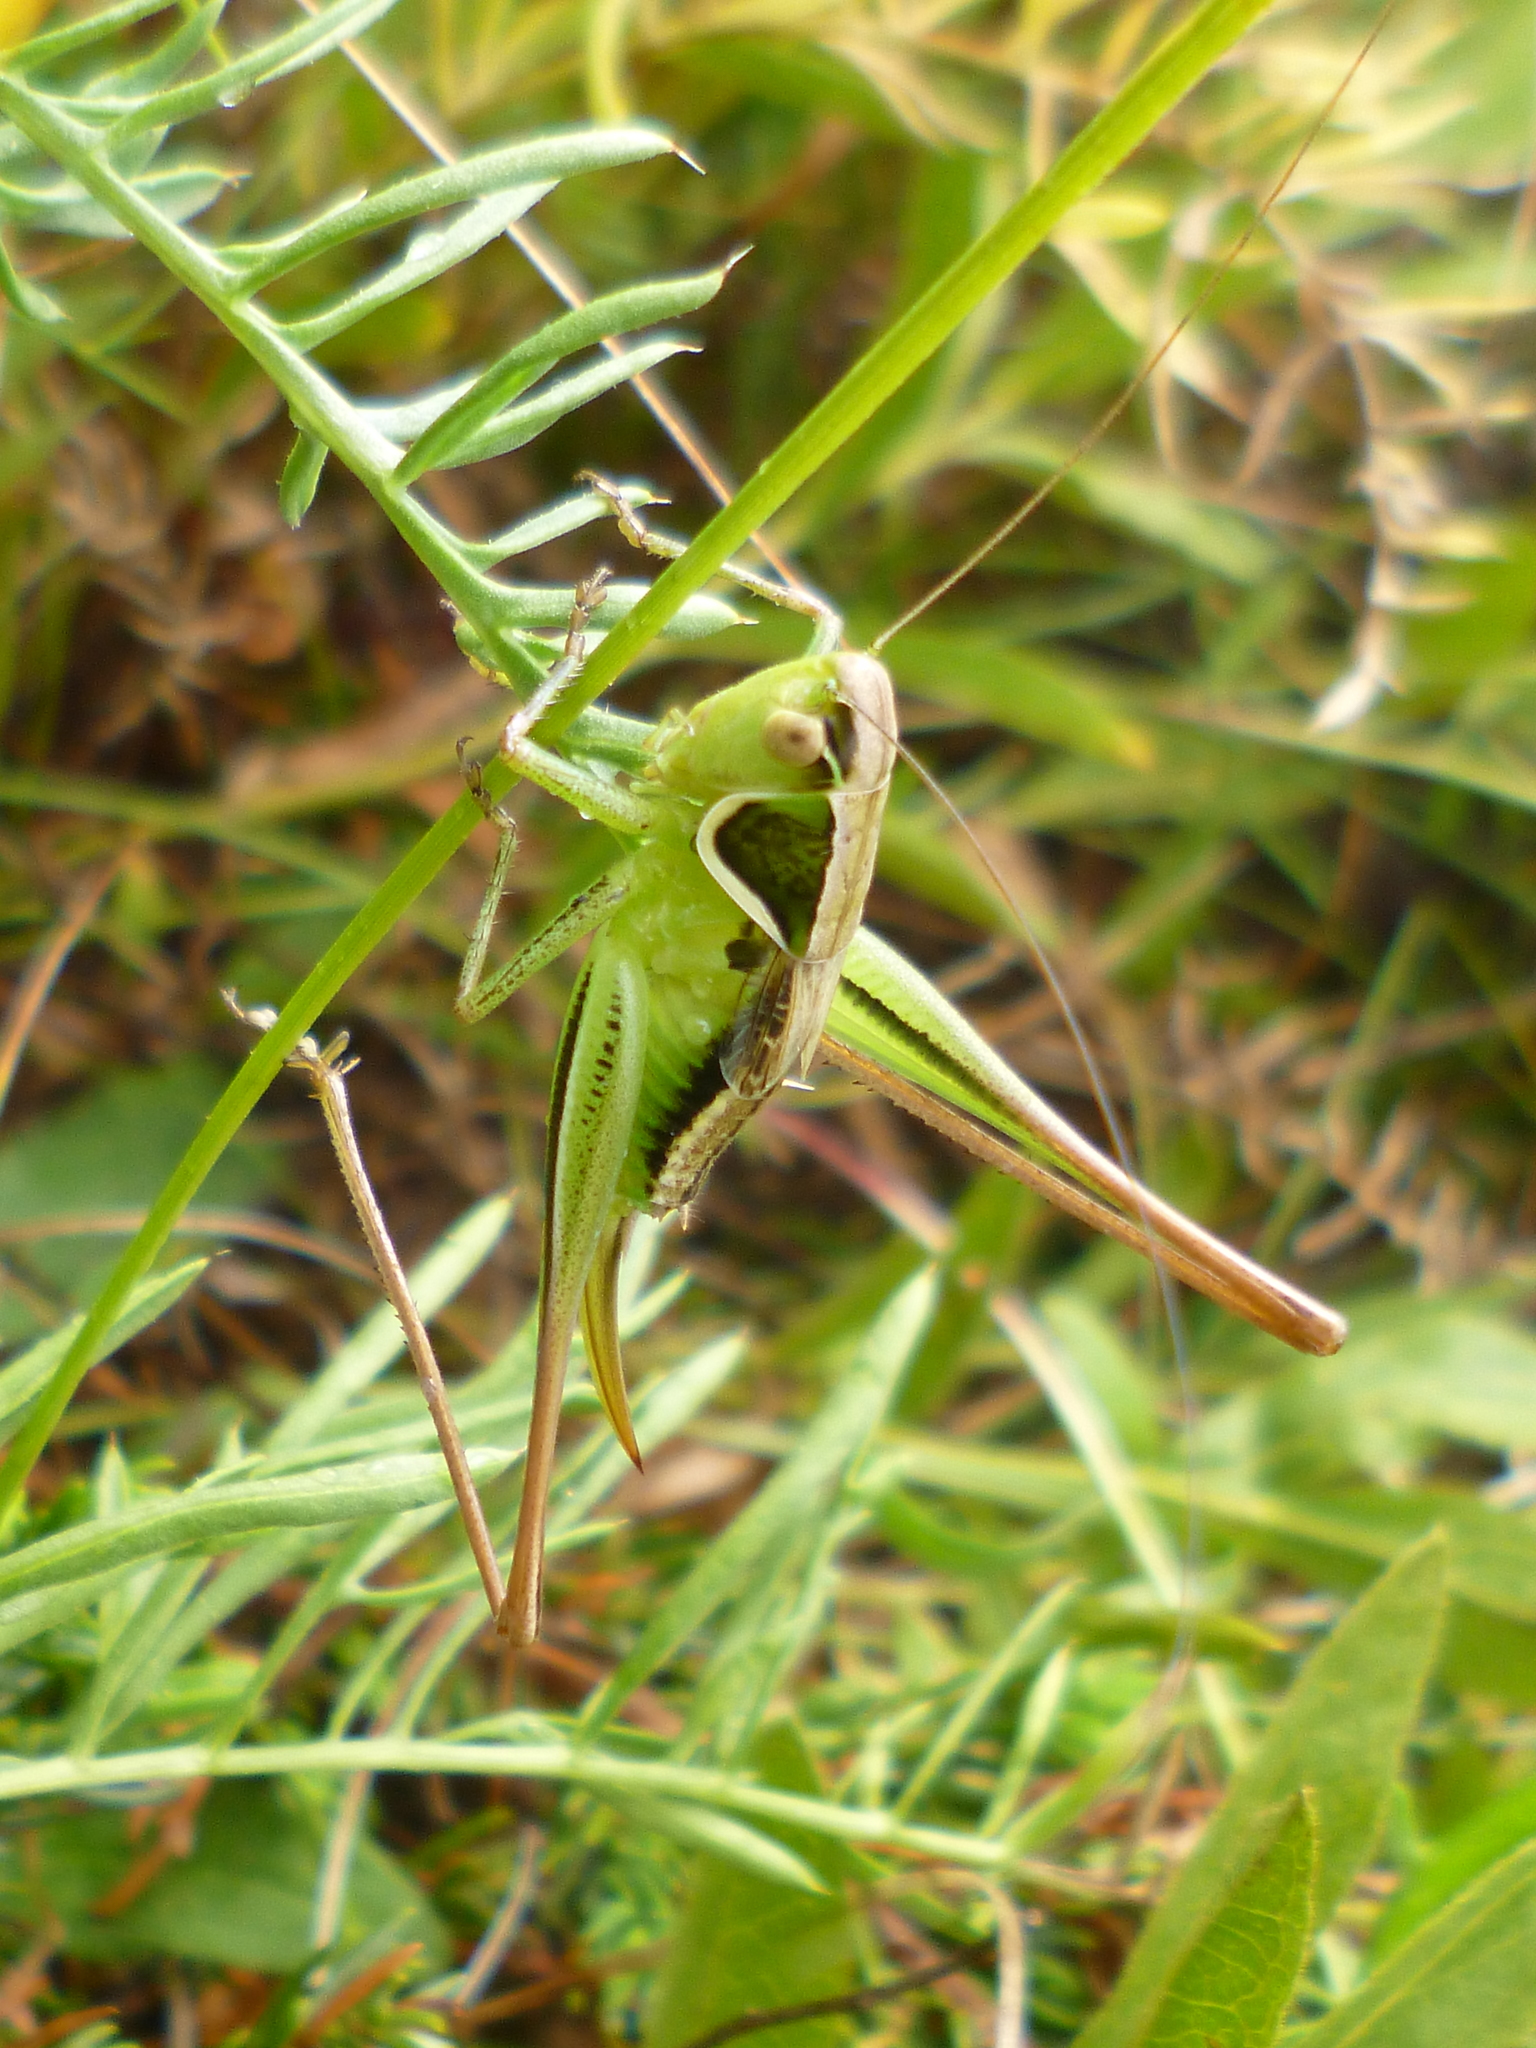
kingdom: Animalia
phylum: Arthropoda
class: Insecta
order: Orthoptera
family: Tettigoniidae
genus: Modestana
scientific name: Modestana modesta
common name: Common modest bush-cricket
